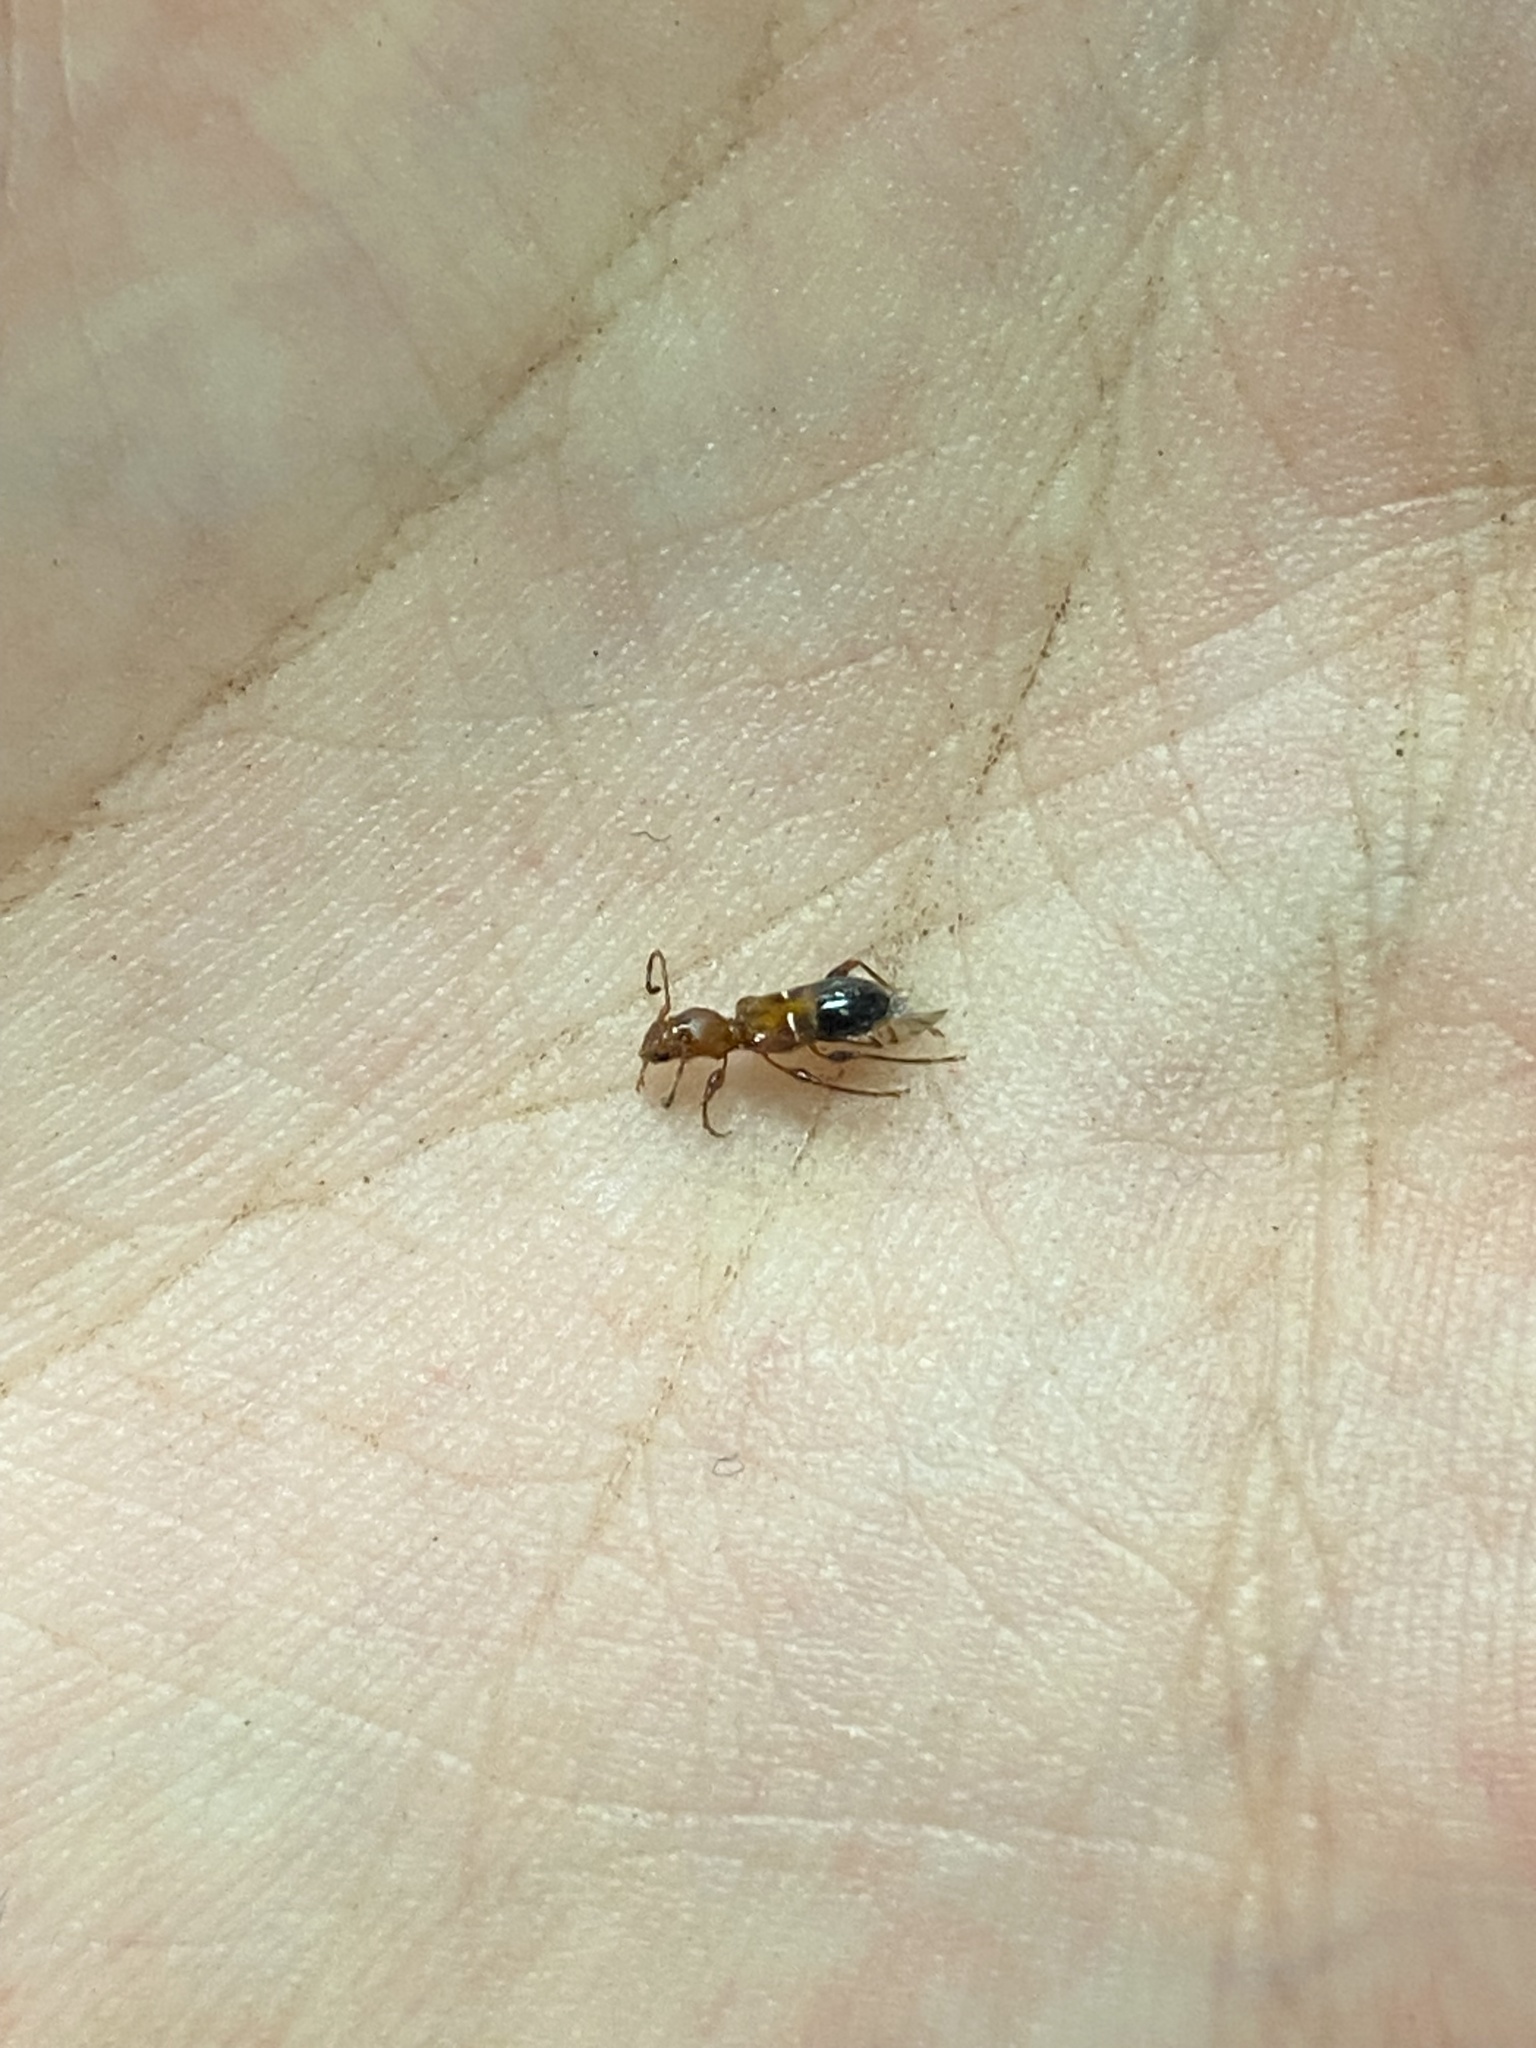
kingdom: Animalia
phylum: Arthropoda
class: Insecta
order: Coleoptera
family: Cerambycidae
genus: Euderces
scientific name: Euderces reichei
